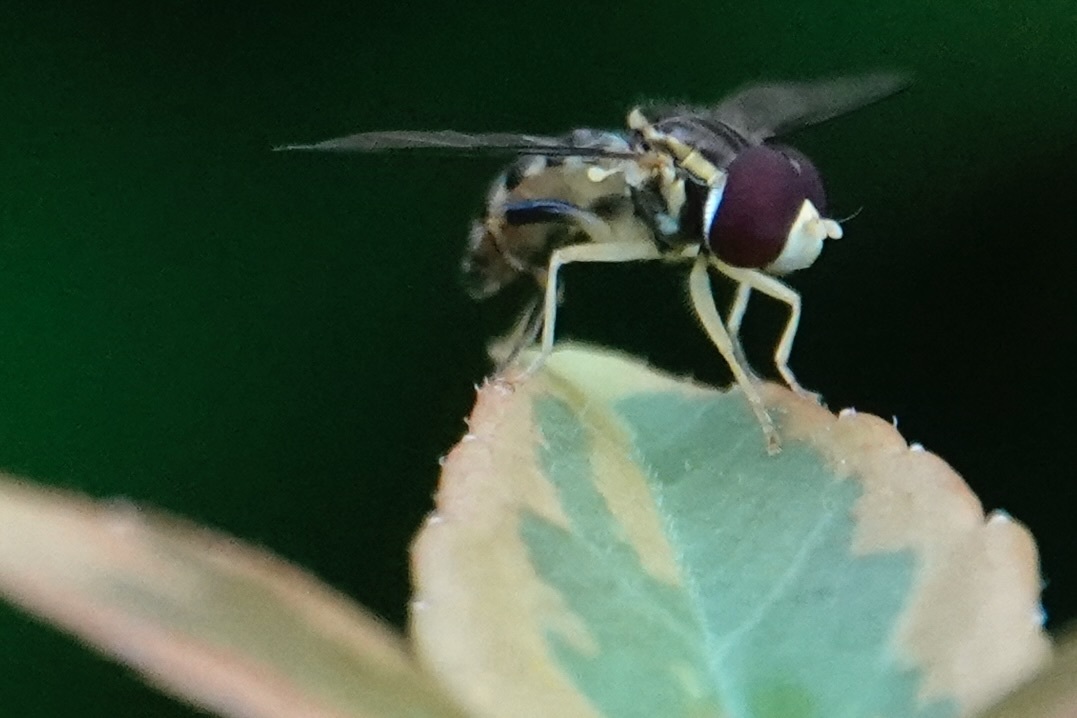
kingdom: Animalia
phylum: Arthropoda
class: Insecta
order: Diptera
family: Syrphidae
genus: Toxomerus
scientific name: Toxomerus geminatus
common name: Eastern calligrapher
